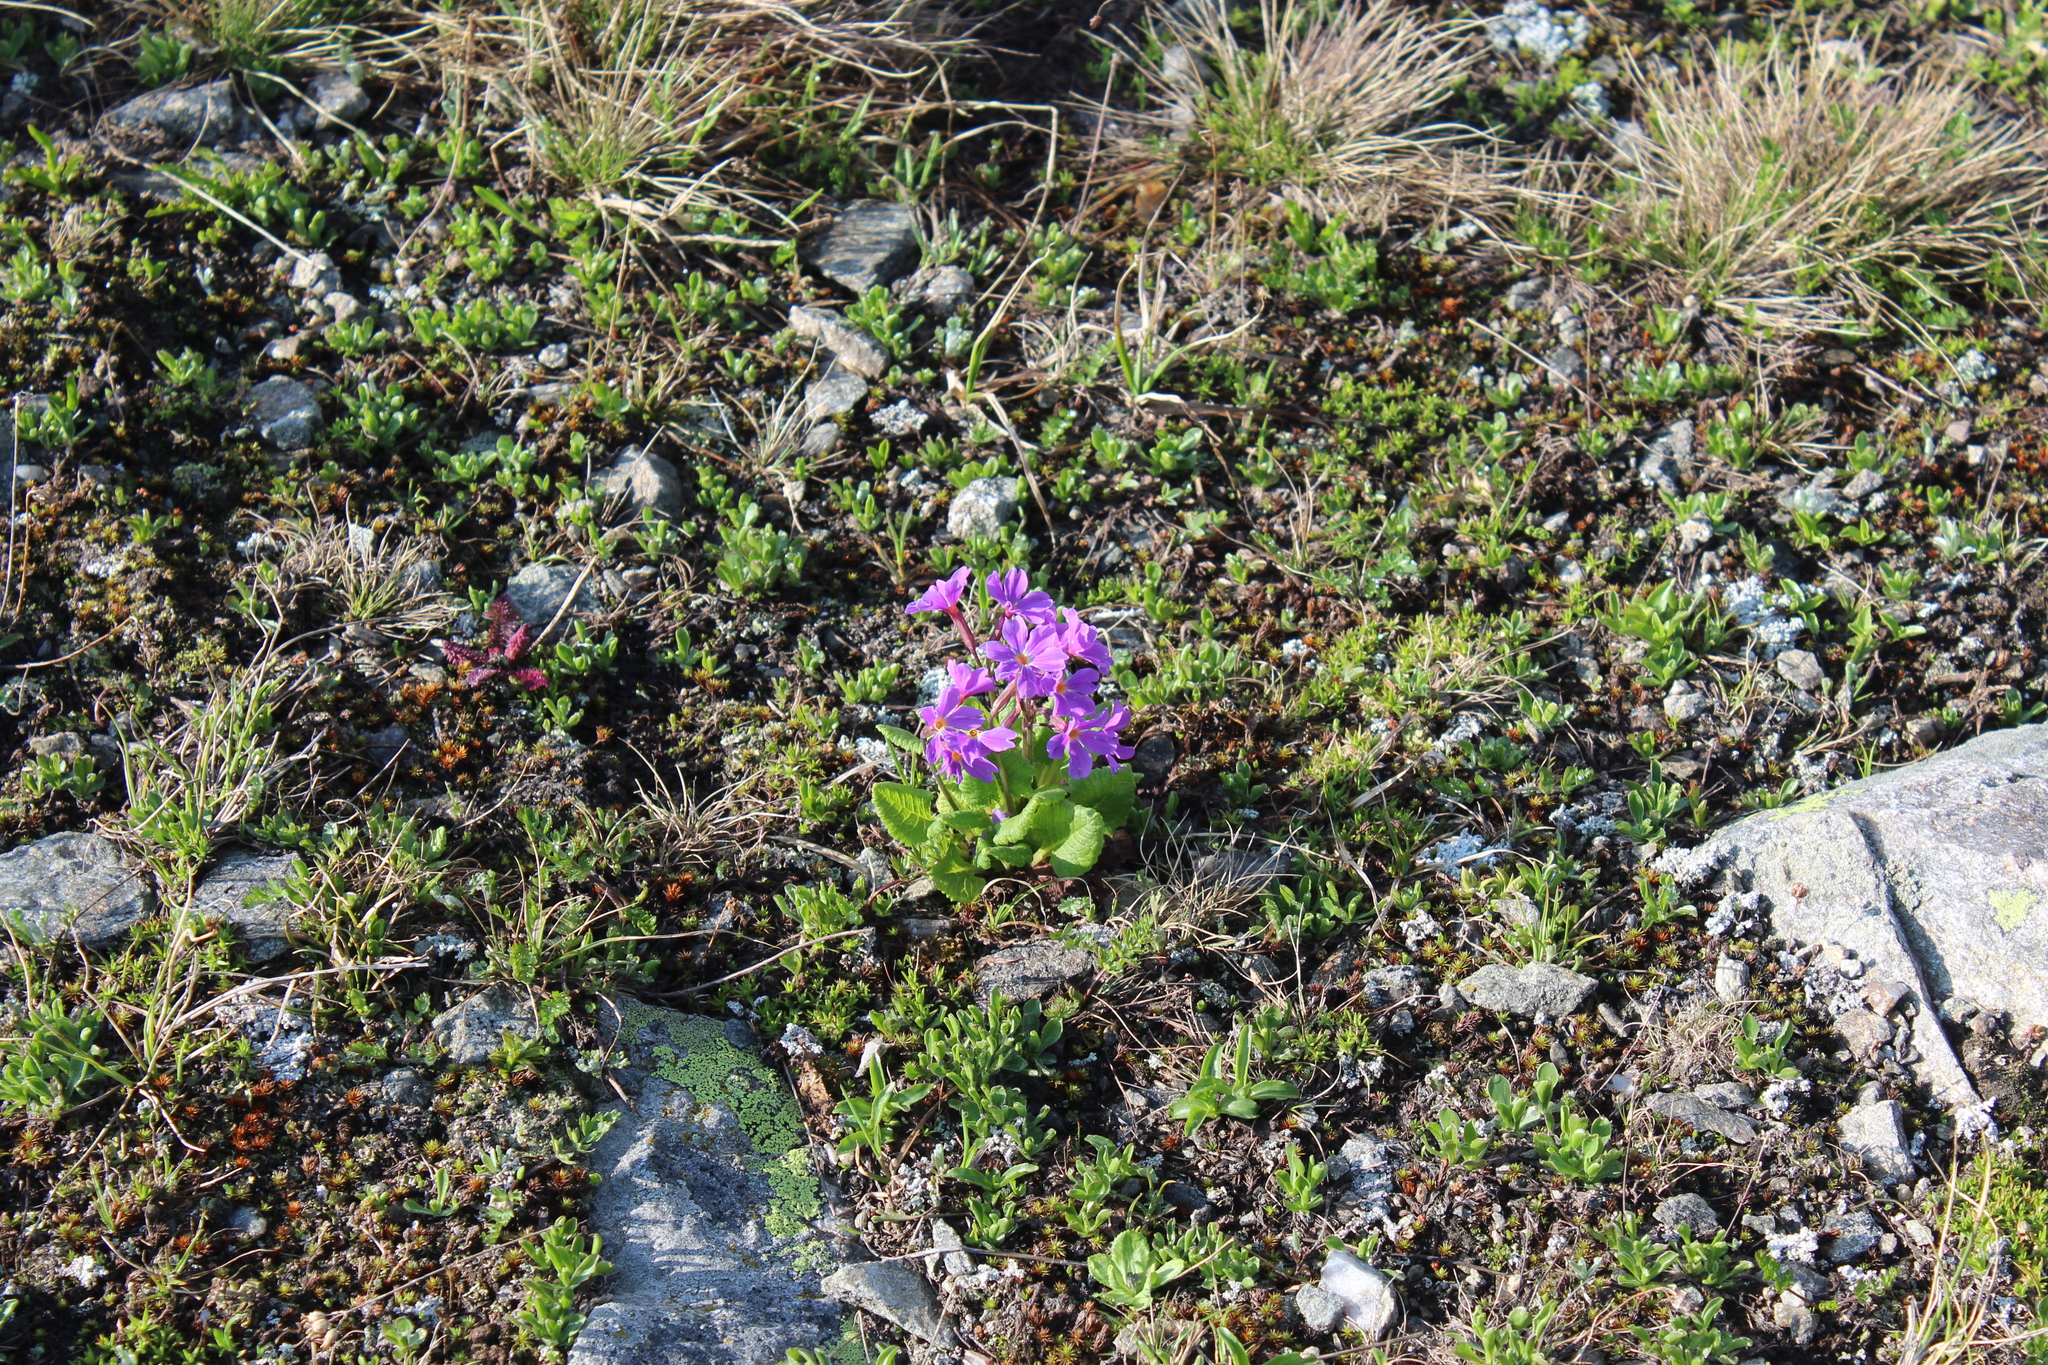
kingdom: Plantae
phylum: Tracheophyta
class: Magnoliopsida
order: Ericales
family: Primulaceae
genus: Primula
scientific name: Primula amoena
